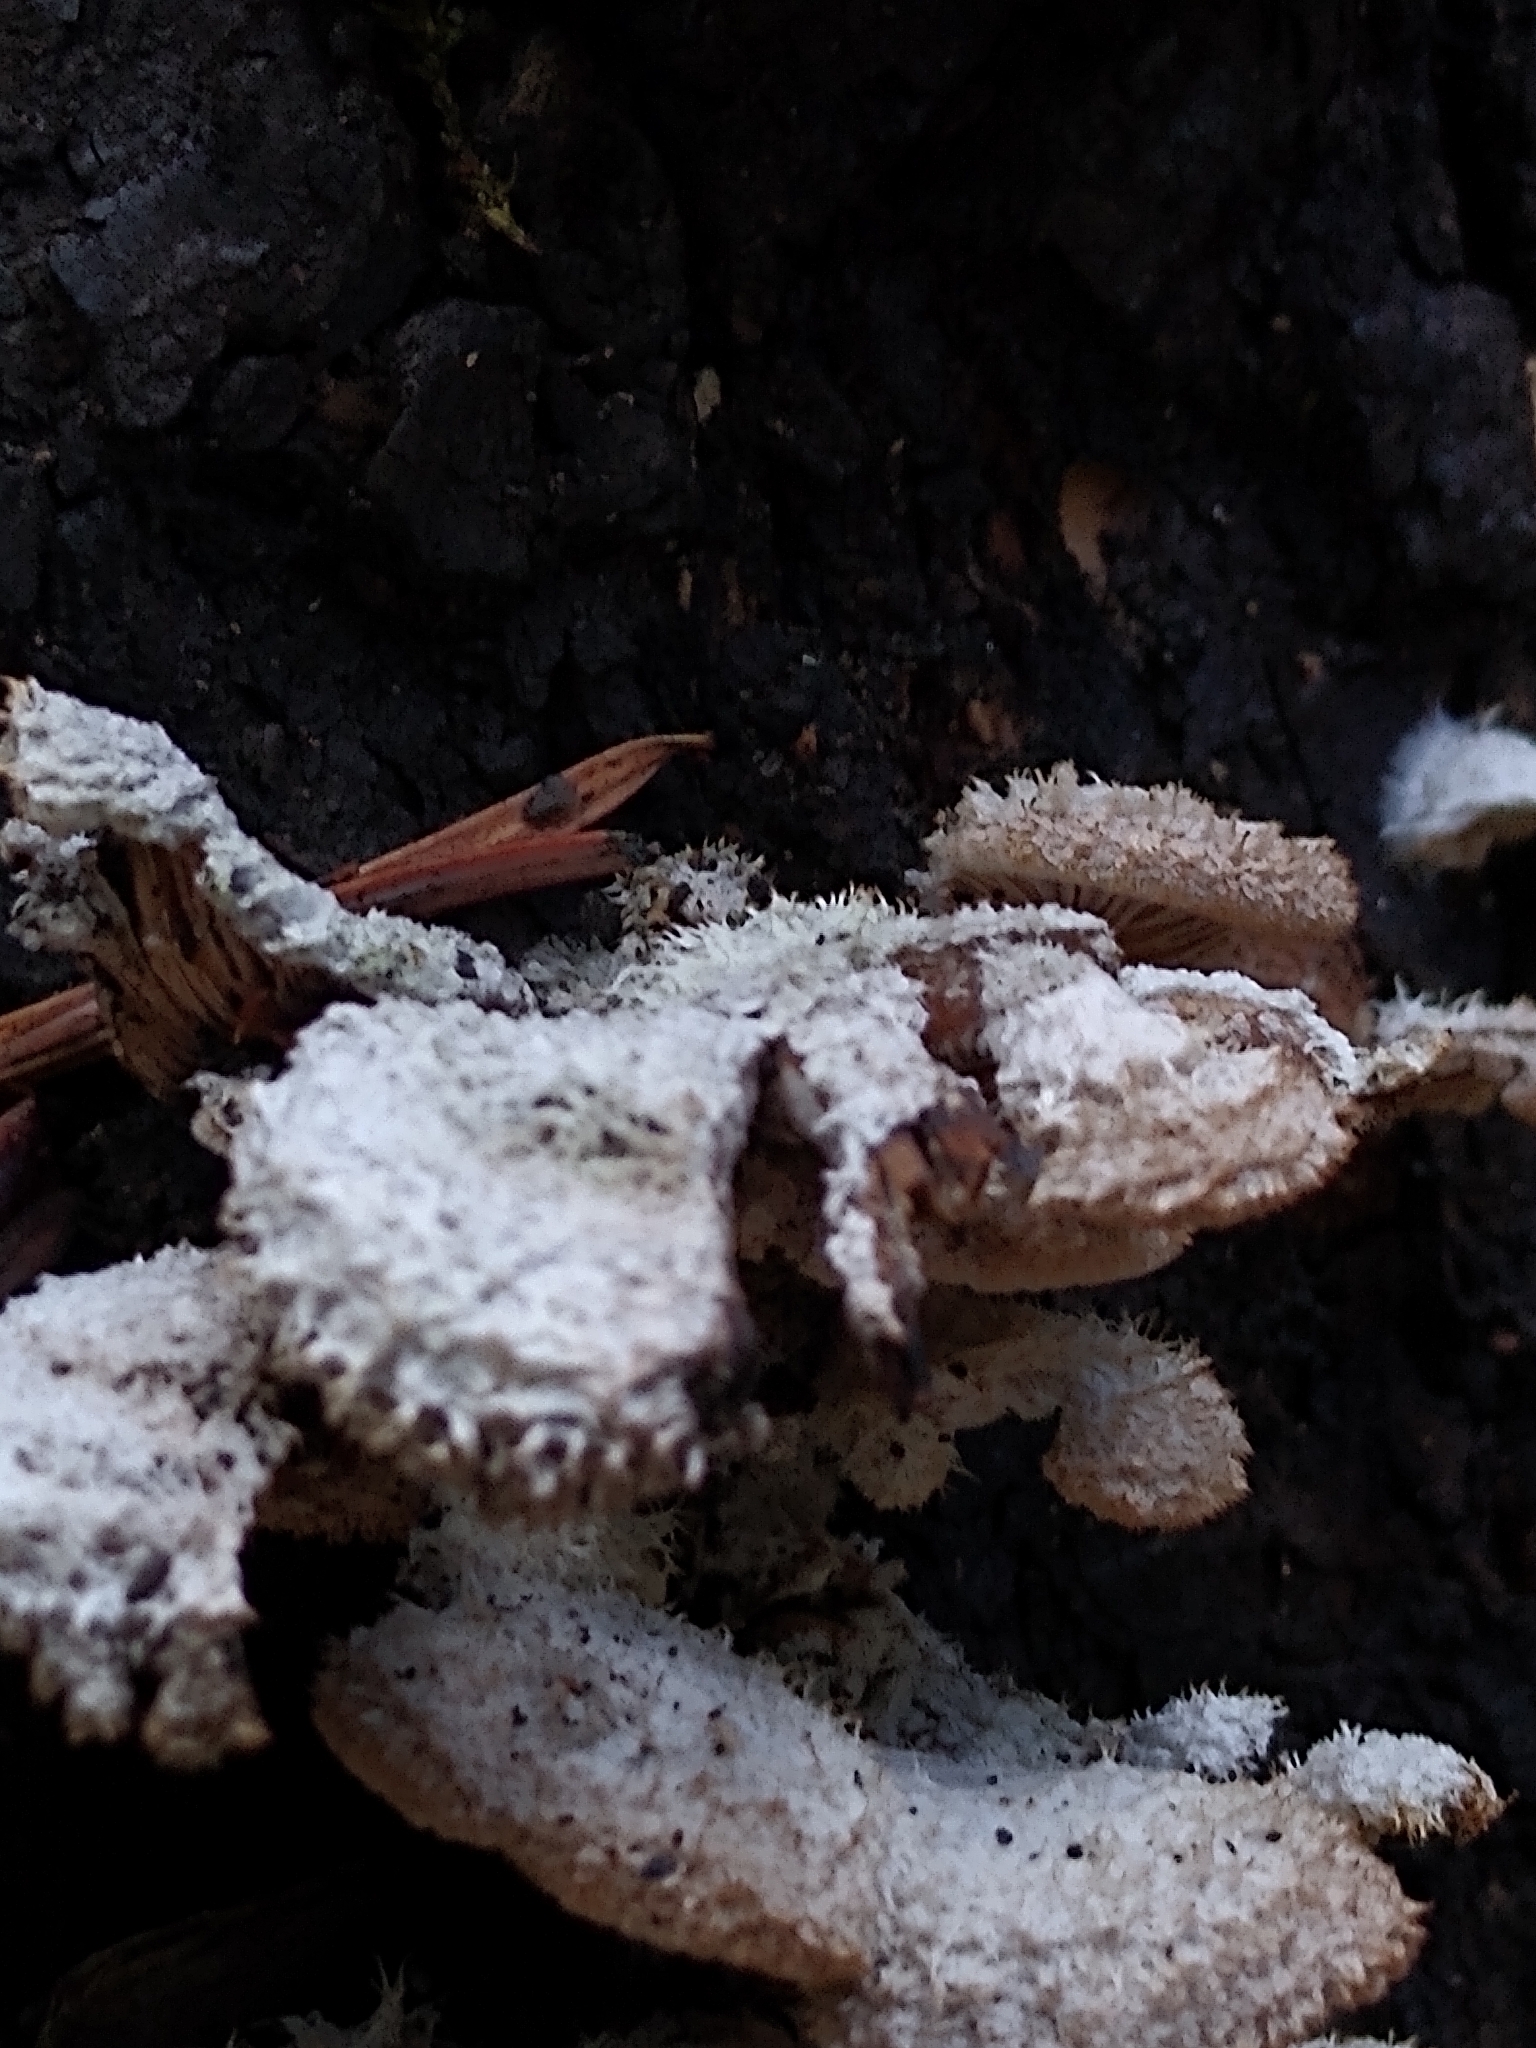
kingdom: Fungi
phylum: Basidiomycota
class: Agaricomycetes
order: Agaricales
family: Schizophyllaceae
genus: Schizophyllum
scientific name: Schizophyllum commune
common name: Common porecrust
